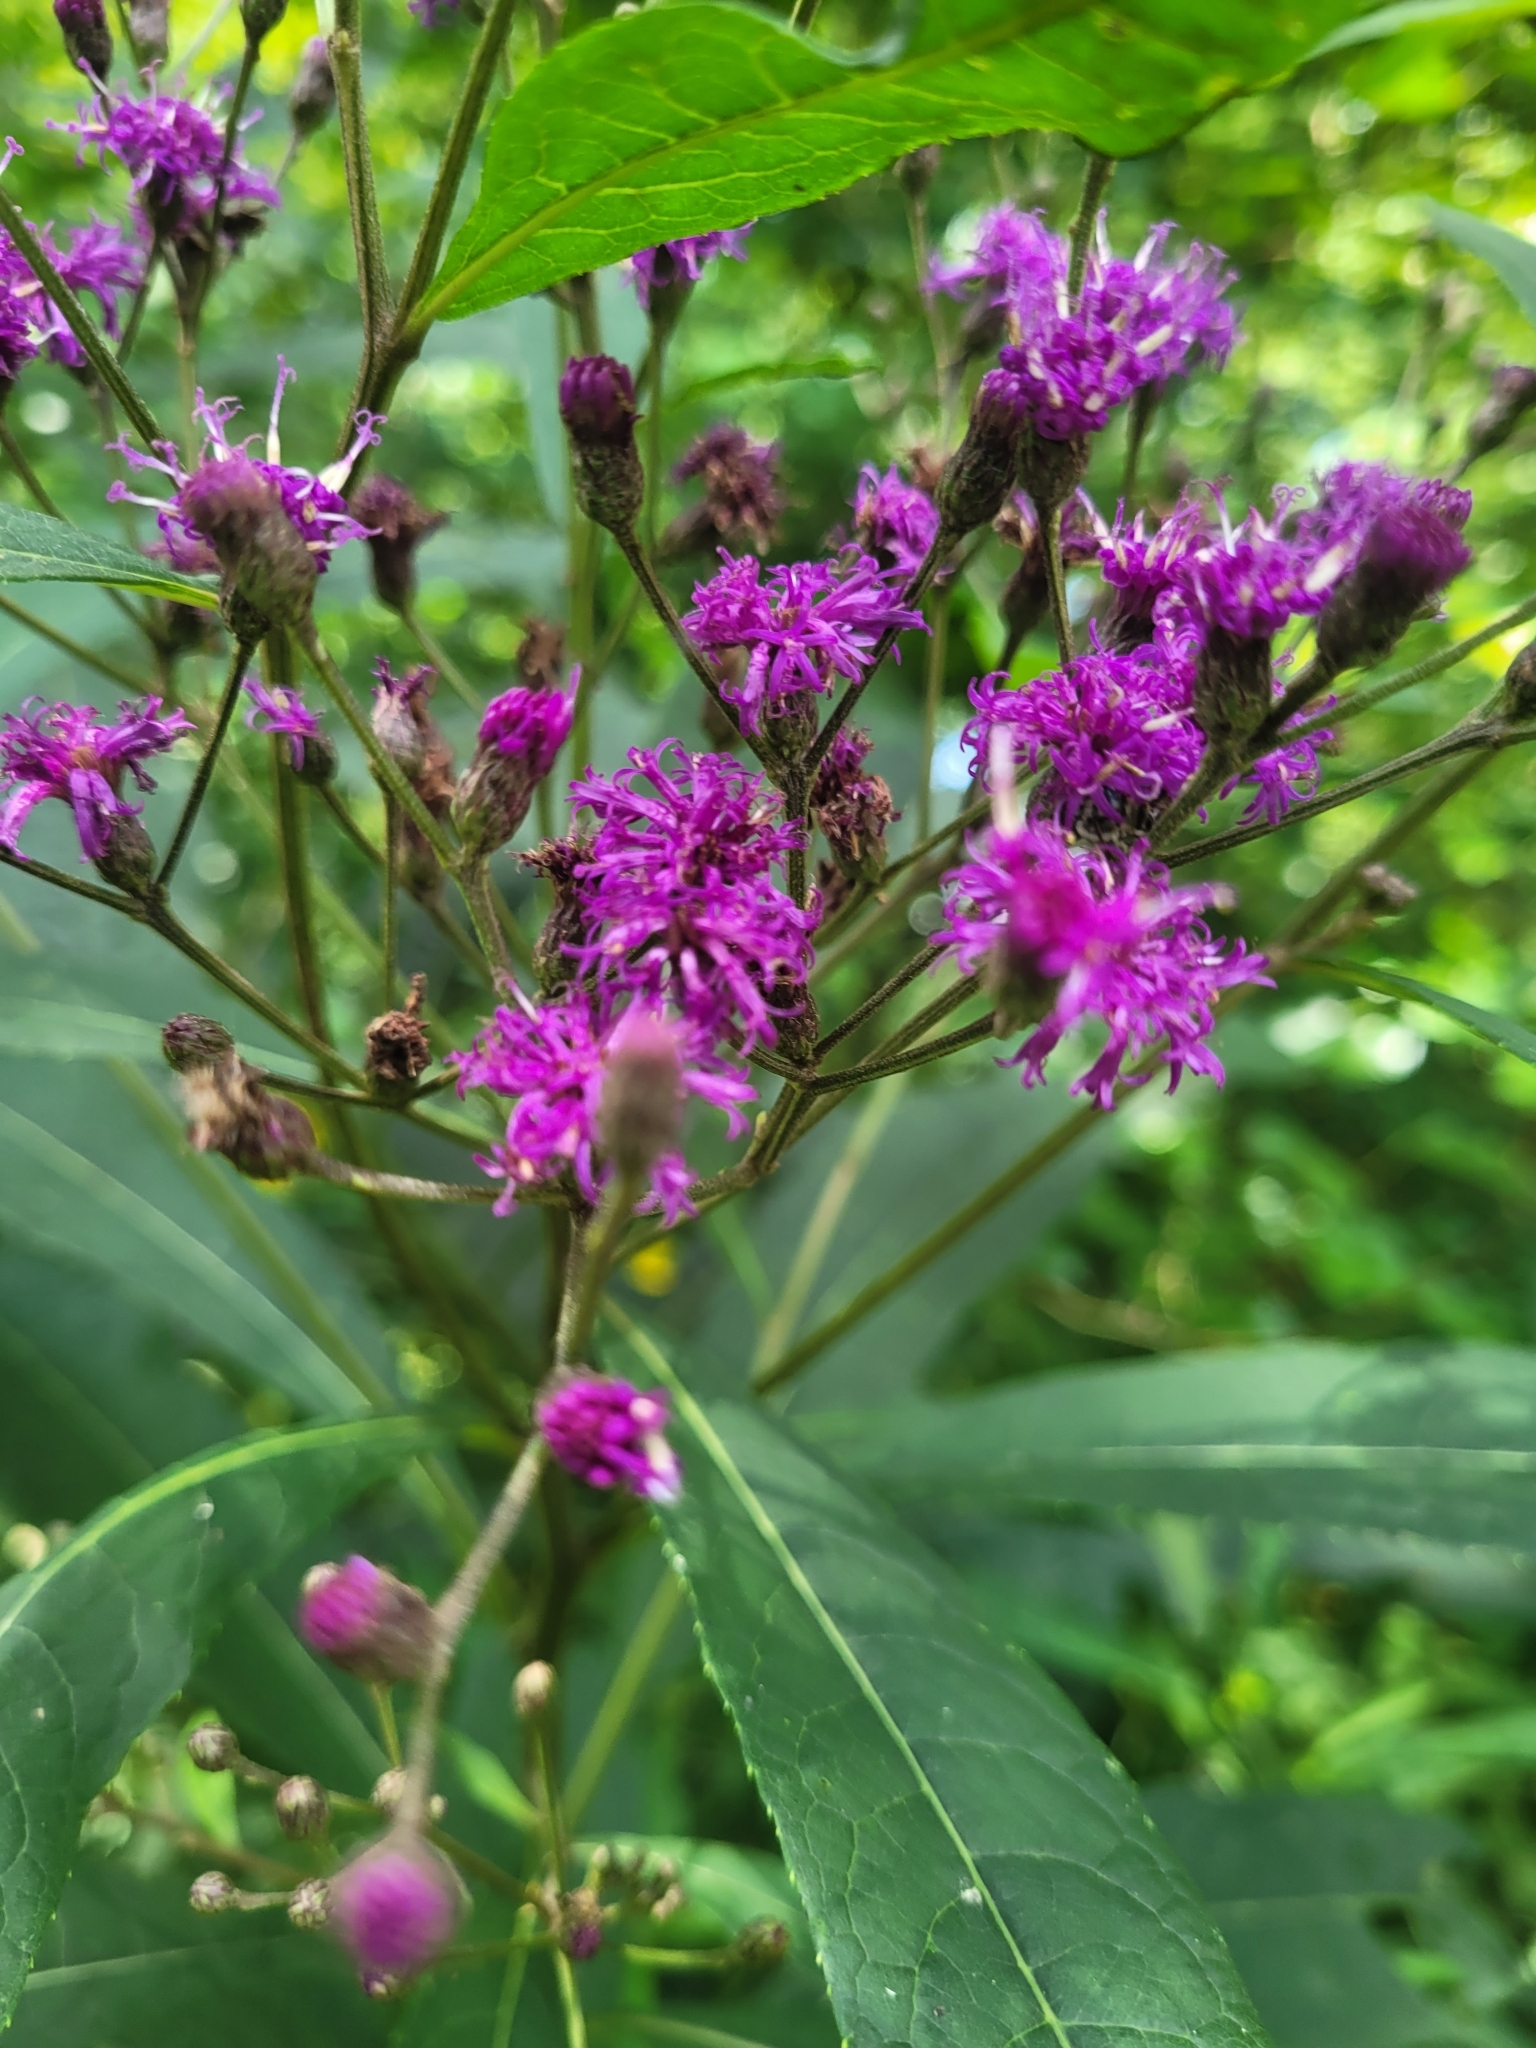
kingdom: Plantae
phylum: Tracheophyta
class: Magnoliopsida
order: Asterales
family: Asteraceae
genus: Vernonia
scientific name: Vernonia gigantea
